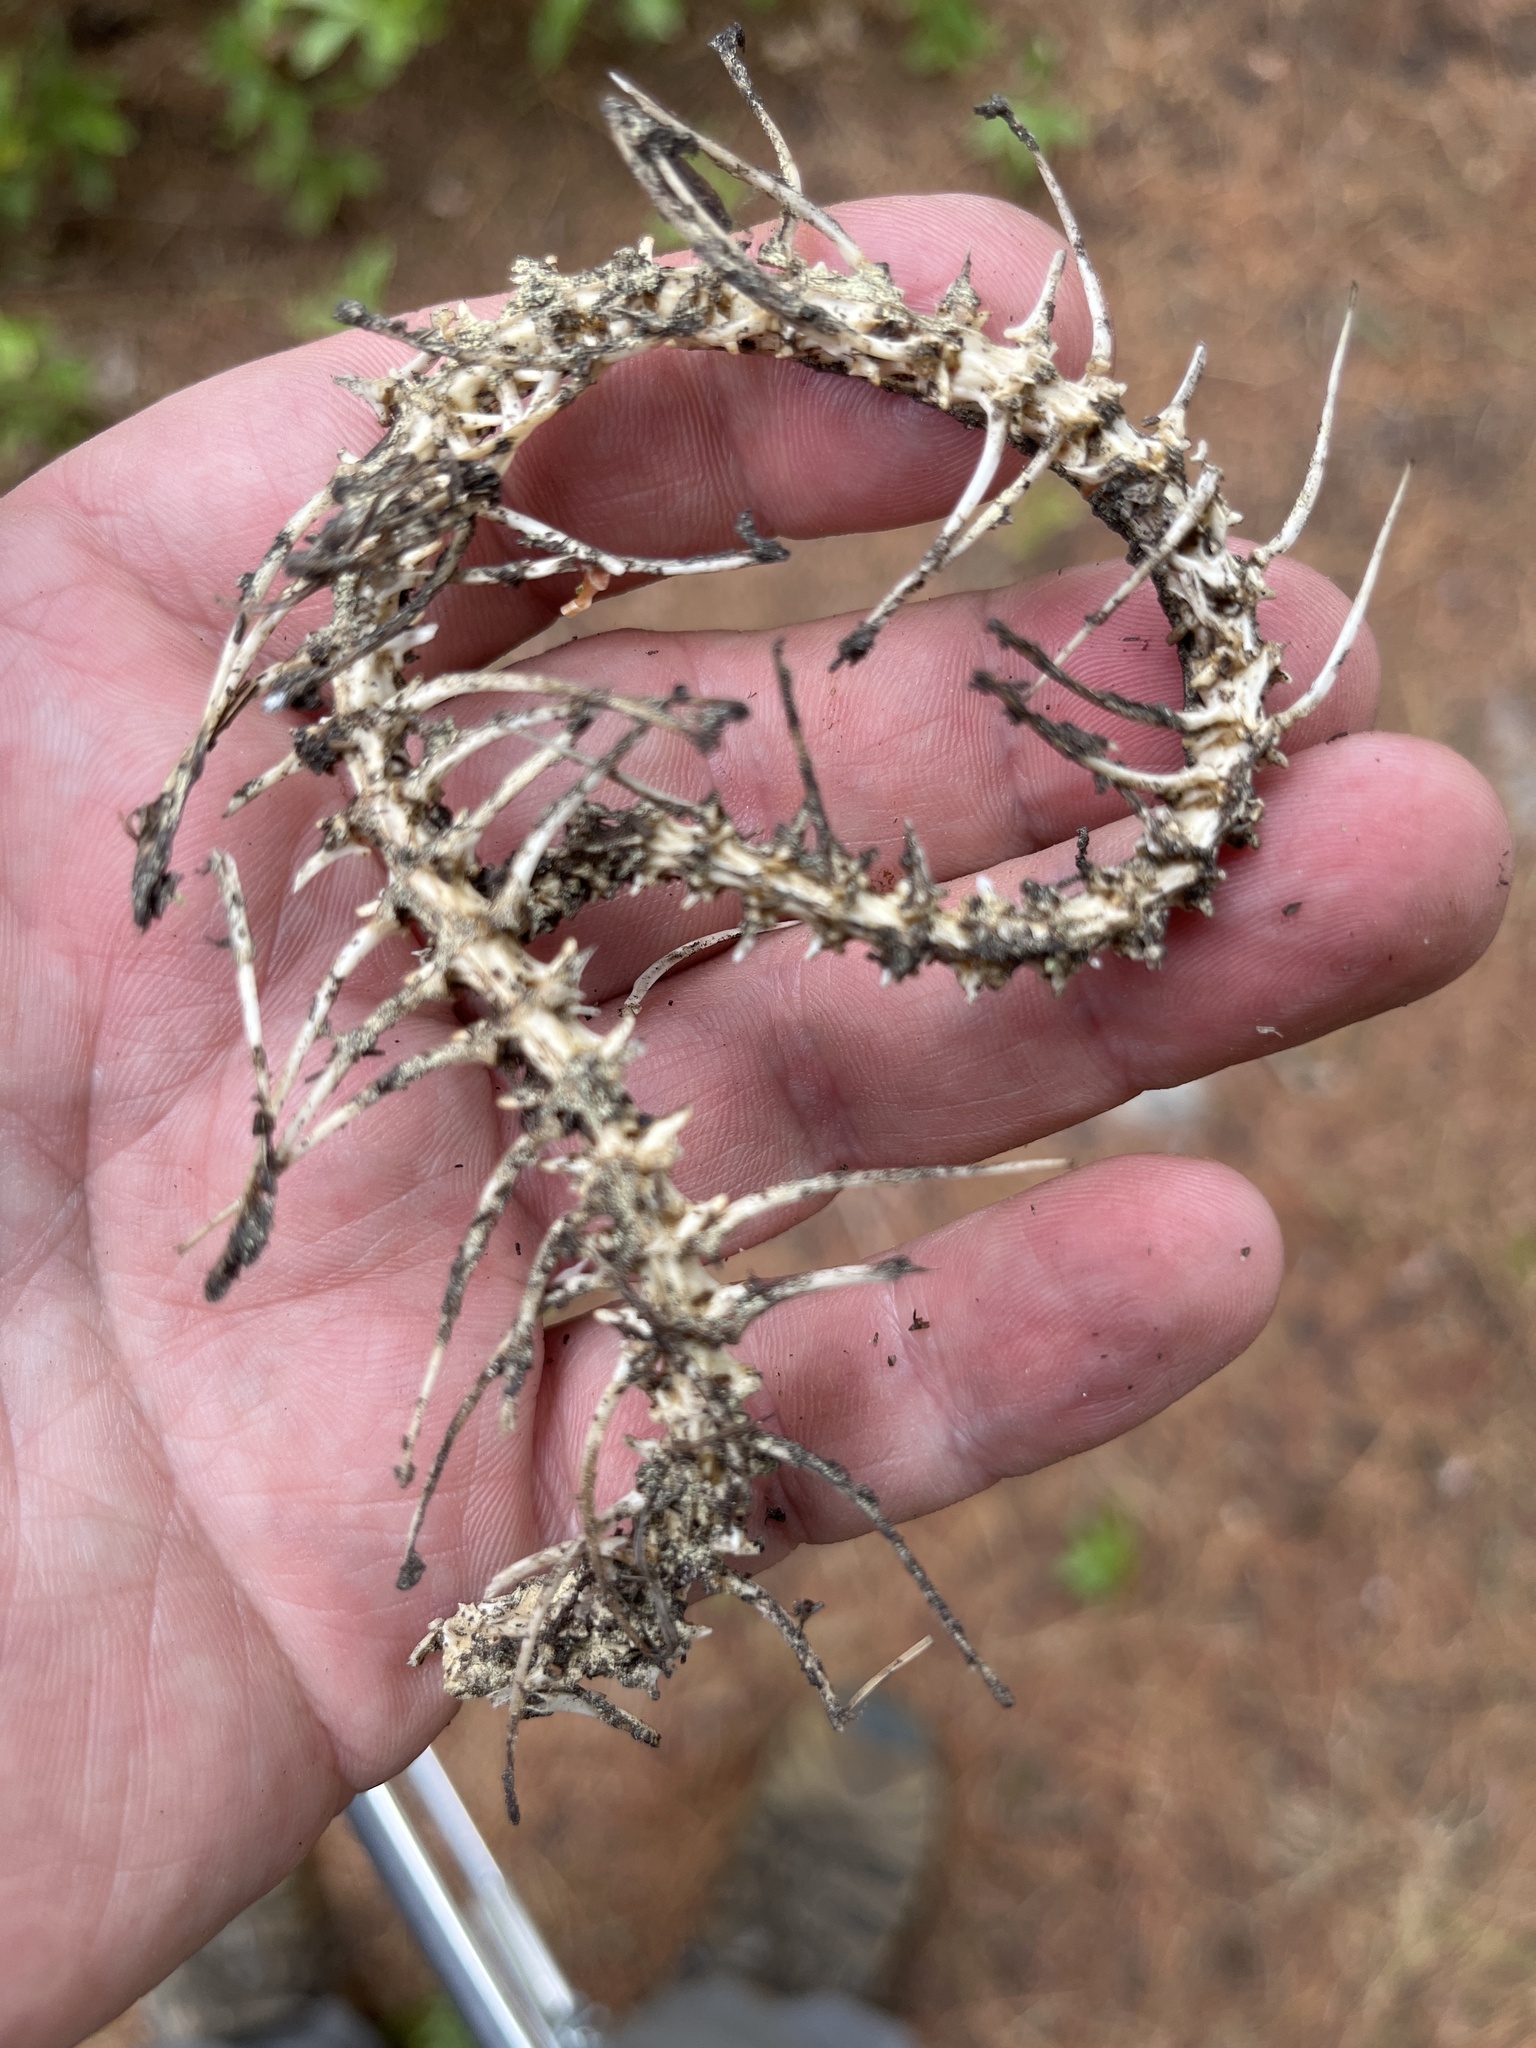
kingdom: Animalia
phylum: Chordata
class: Squamata
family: Colubridae
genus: Coluber
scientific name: Coluber constrictor
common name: Eastern racer
